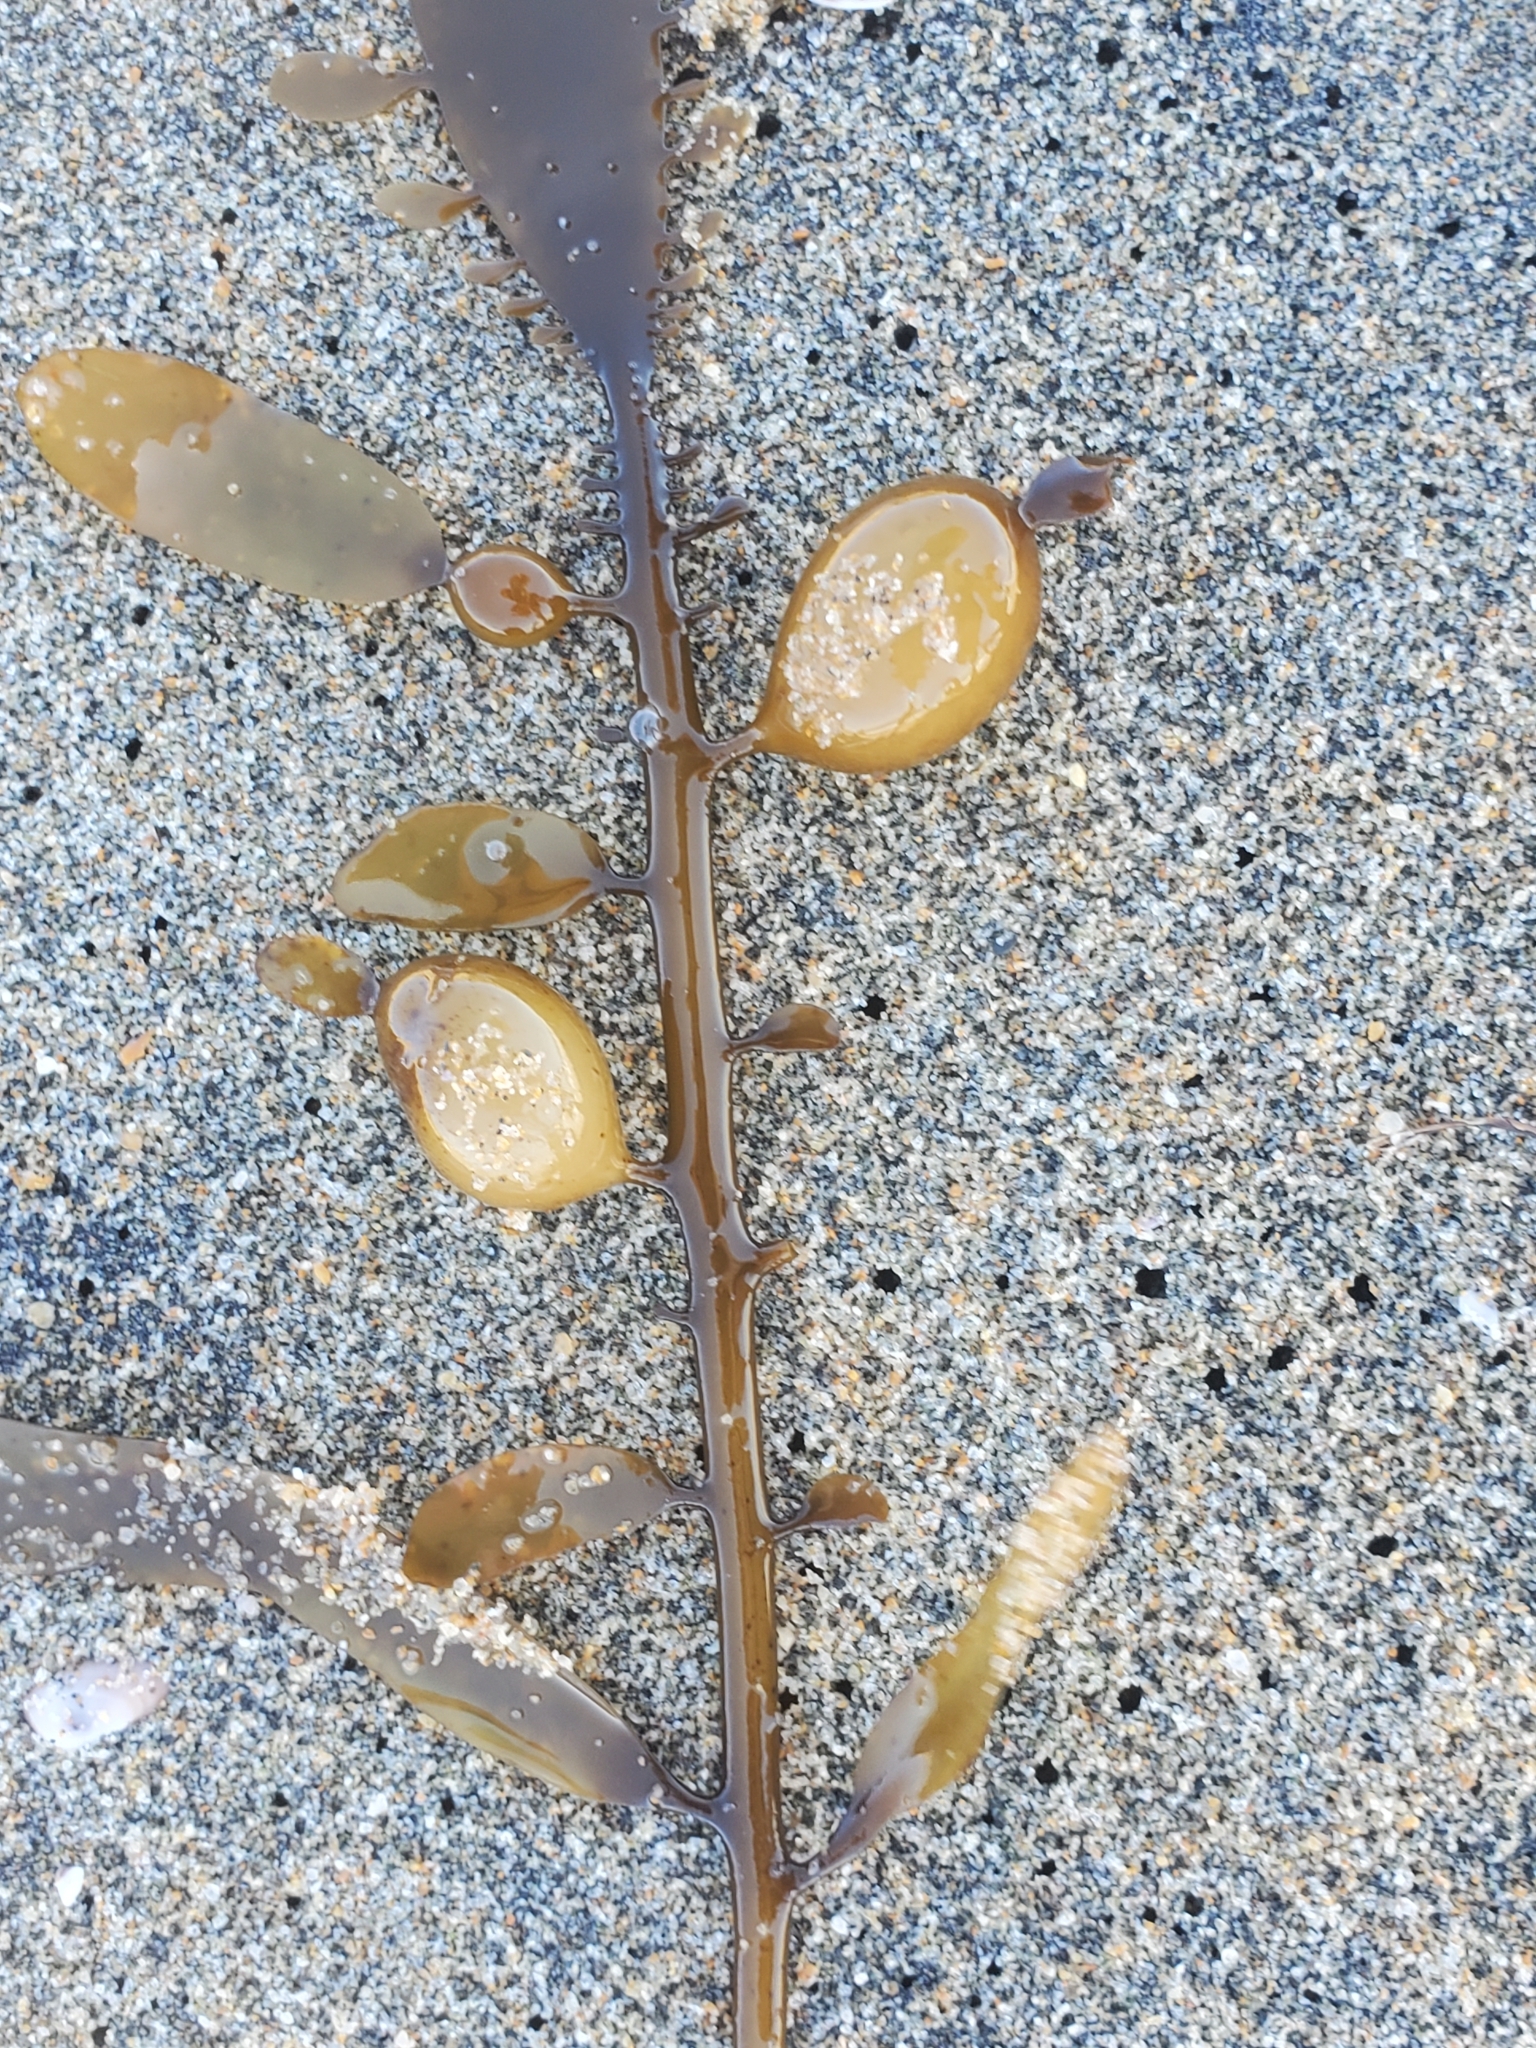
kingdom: Chromista
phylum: Ochrophyta
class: Phaeophyceae
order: Laminariales
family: Lessoniaceae
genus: Egregia
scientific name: Egregia menziesii
